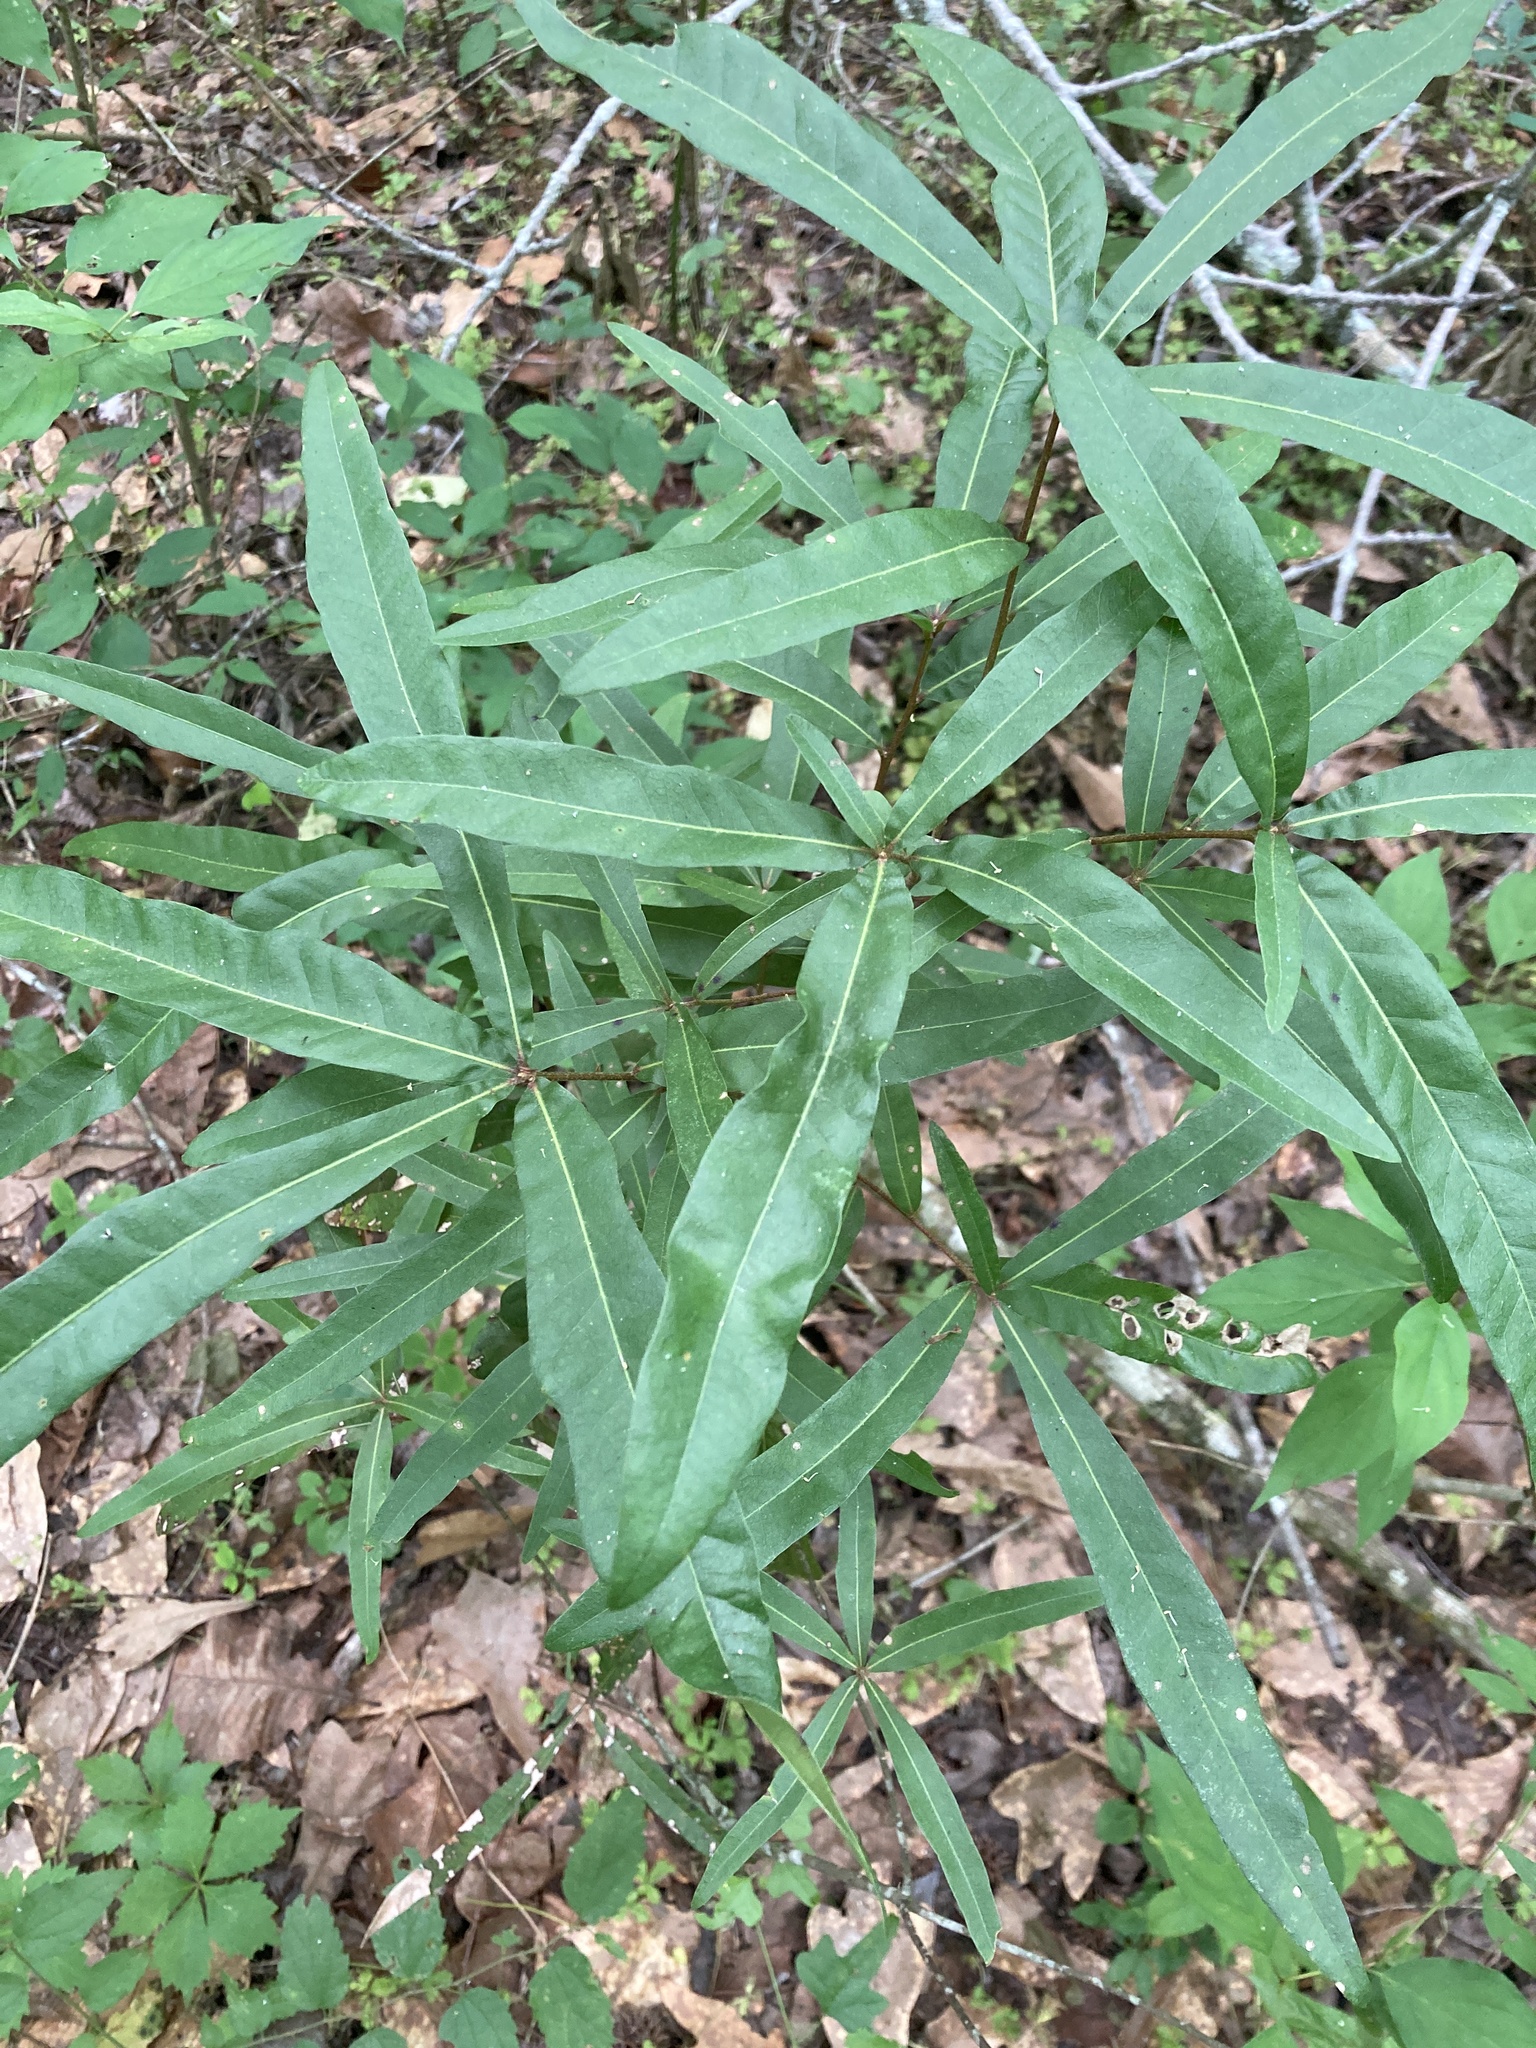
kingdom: Plantae
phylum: Tracheophyta
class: Magnoliopsida
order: Fagales
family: Fagaceae
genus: Quercus
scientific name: Quercus phellos
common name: Willow oak
